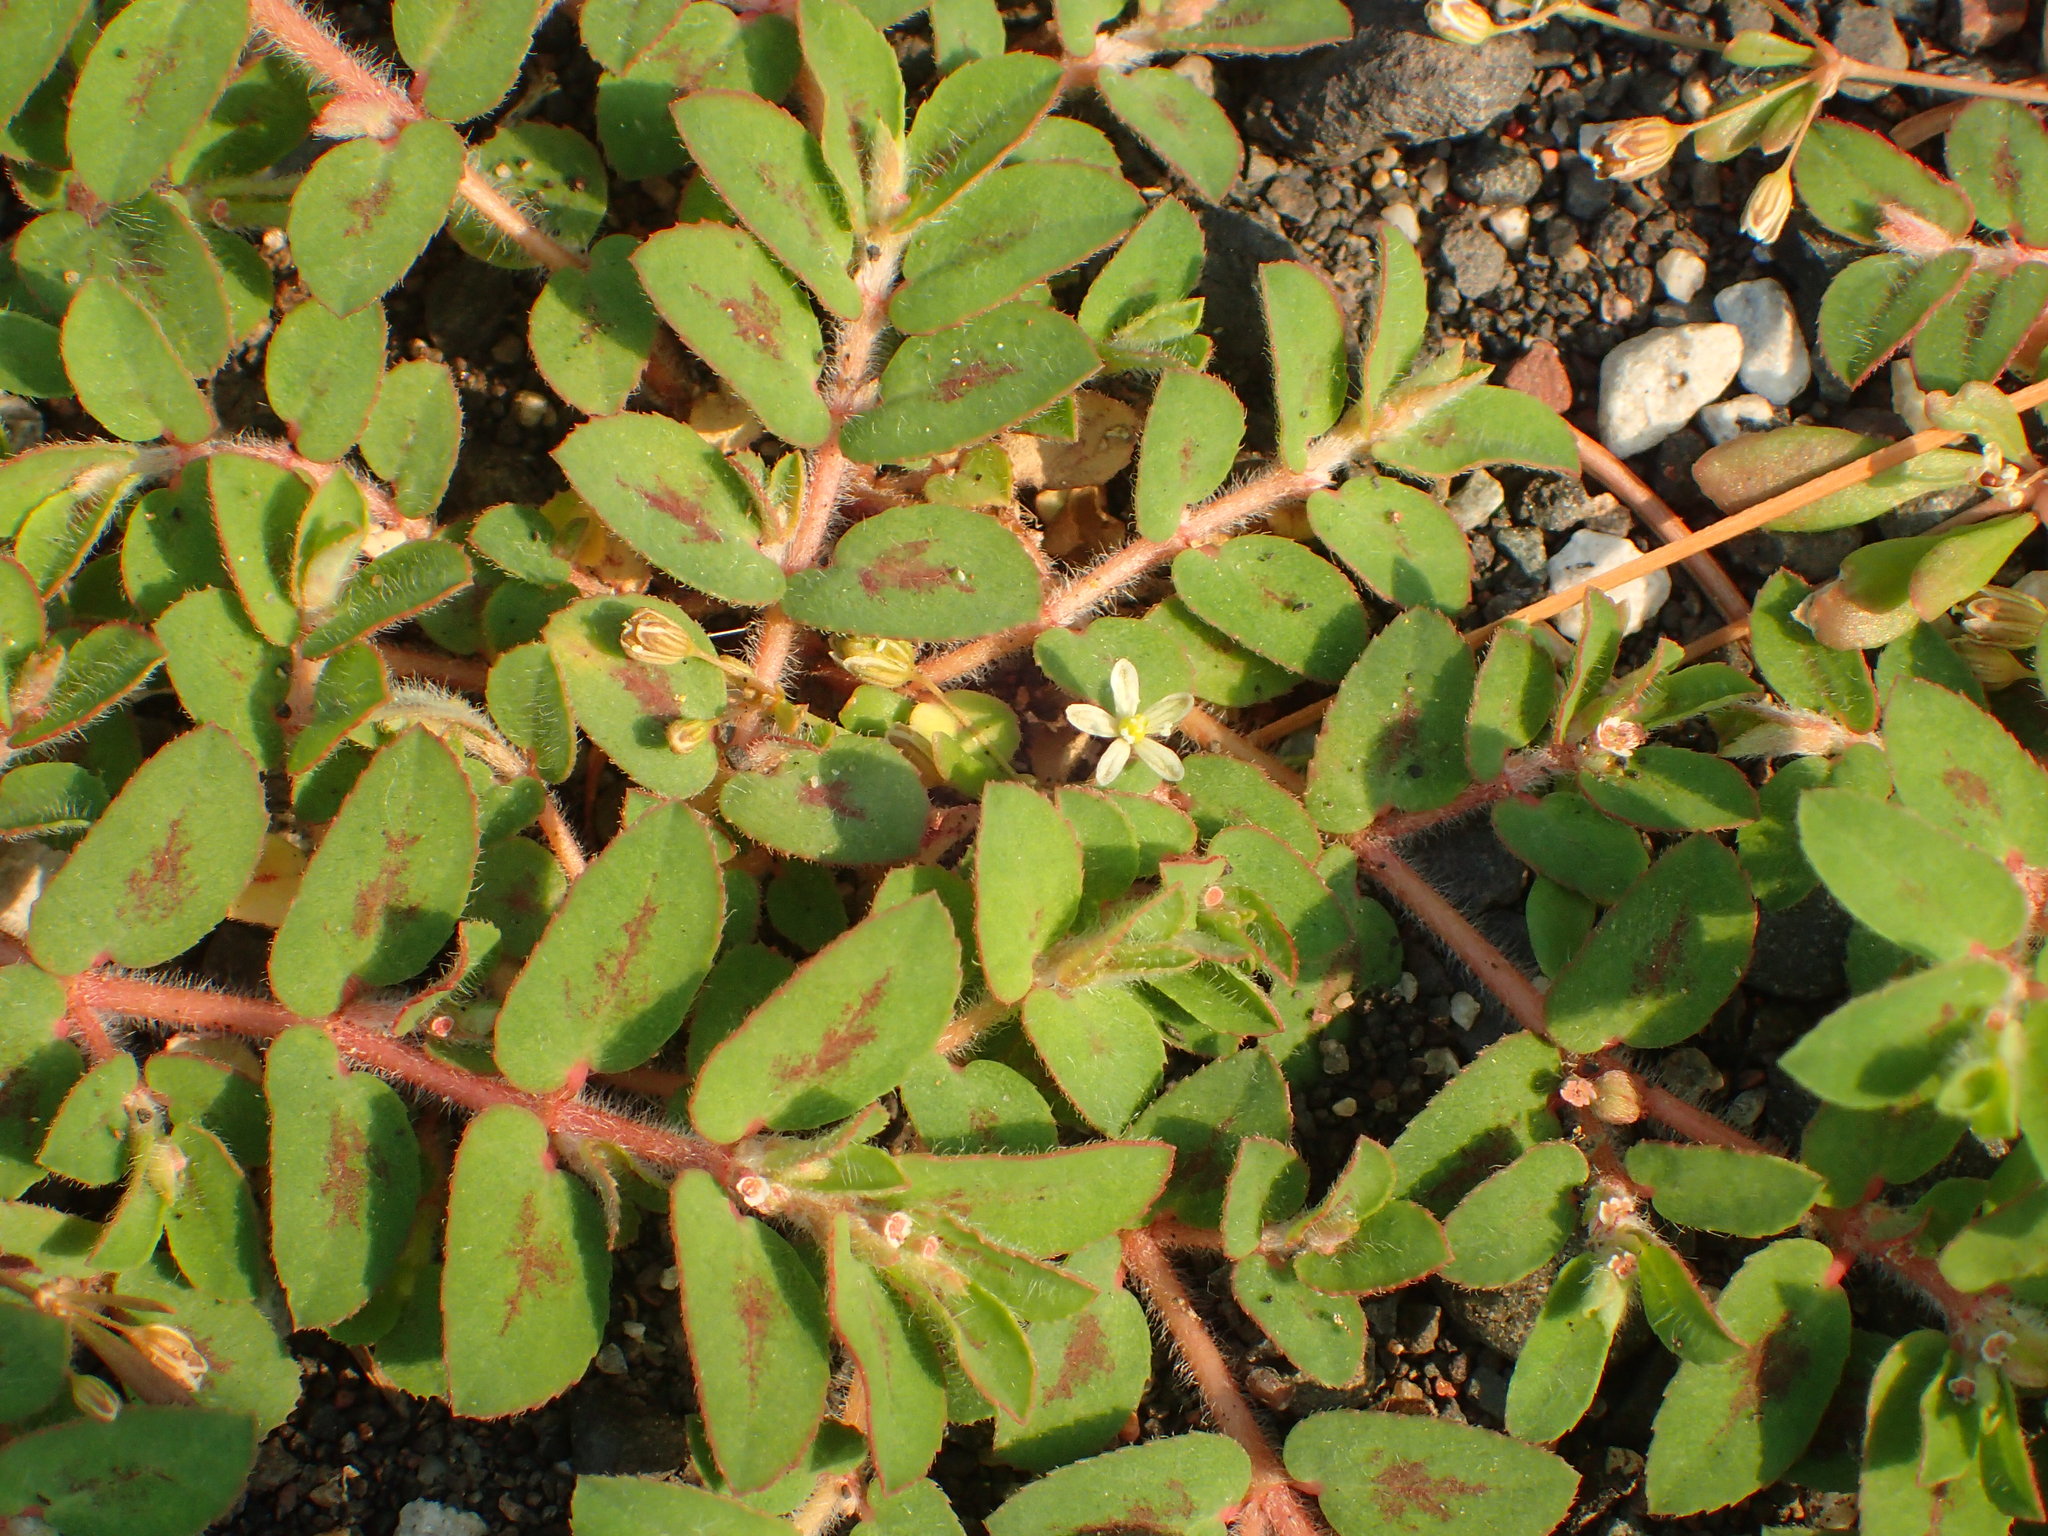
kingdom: Plantae
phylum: Tracheophyta
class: Magnoliopsida
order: Malpighiales
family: Euphorbiaceae
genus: Euphorbia
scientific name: Euphorbia maculata
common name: Spotted spurge
